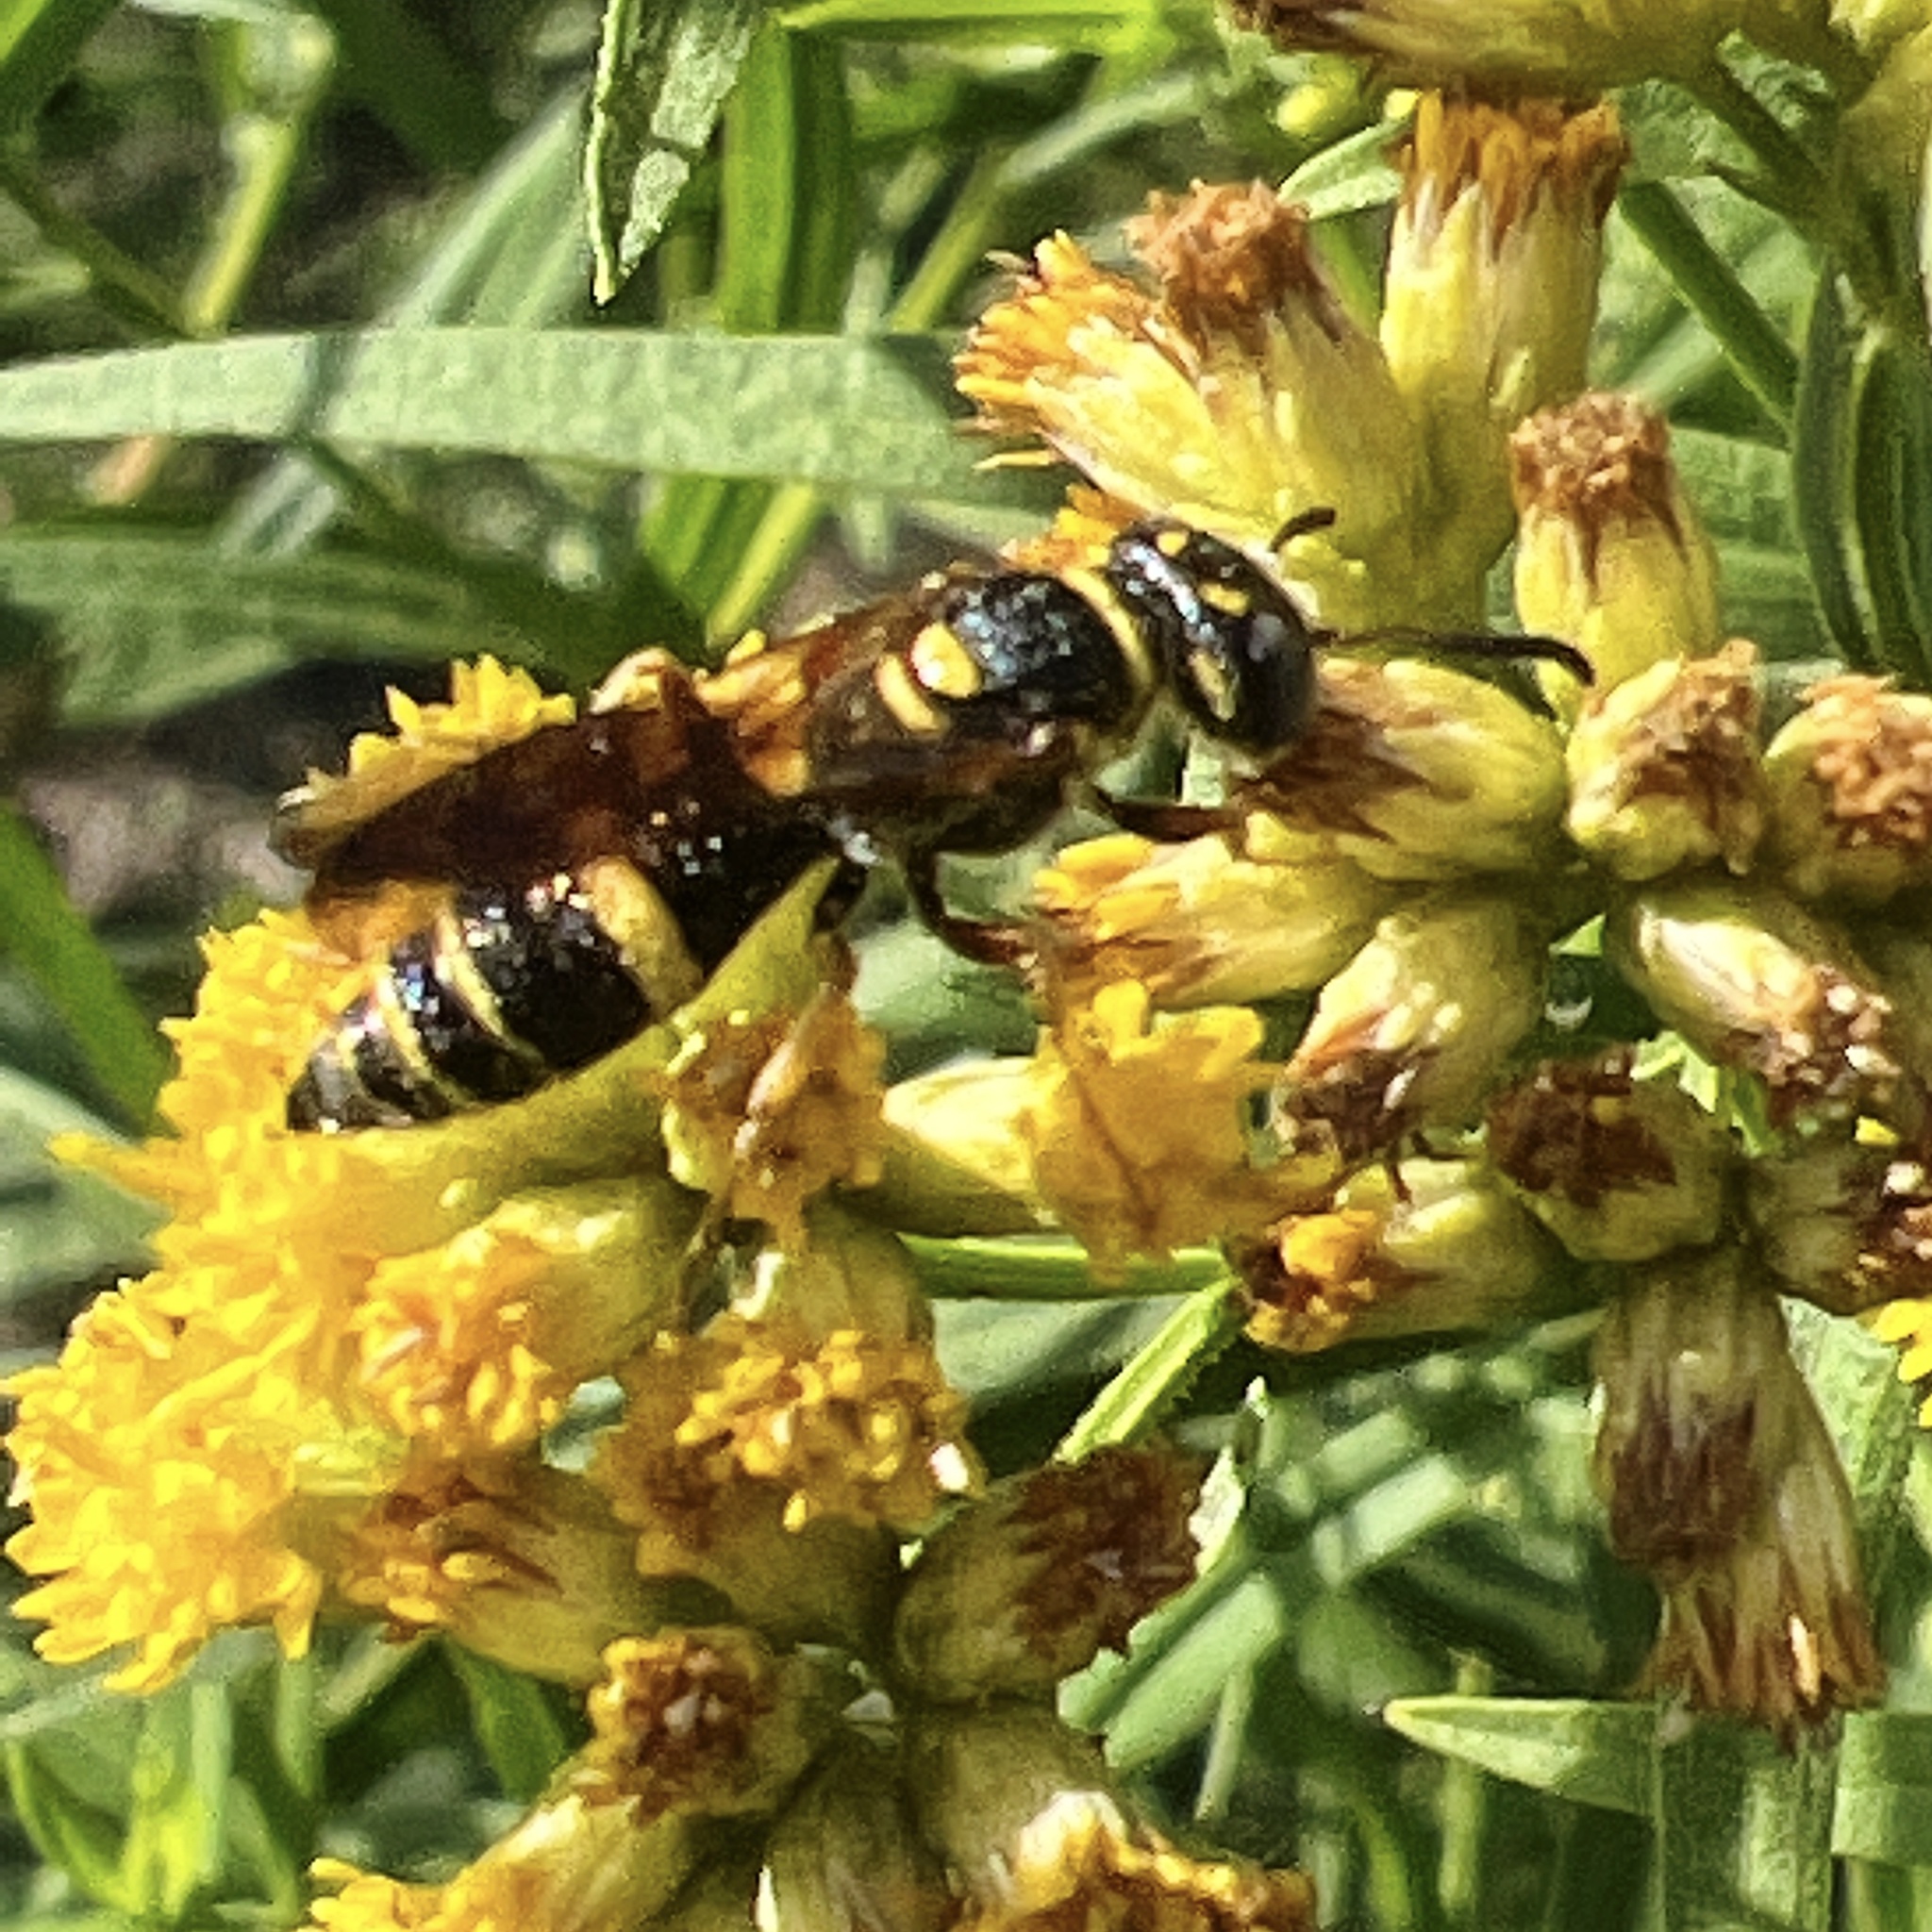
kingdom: Animalia
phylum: Arthropoda
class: Insecta
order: Hymenoptera
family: Crabronidae
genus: Philanthus
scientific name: Philanthus gibbosus
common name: Humped beewolf
